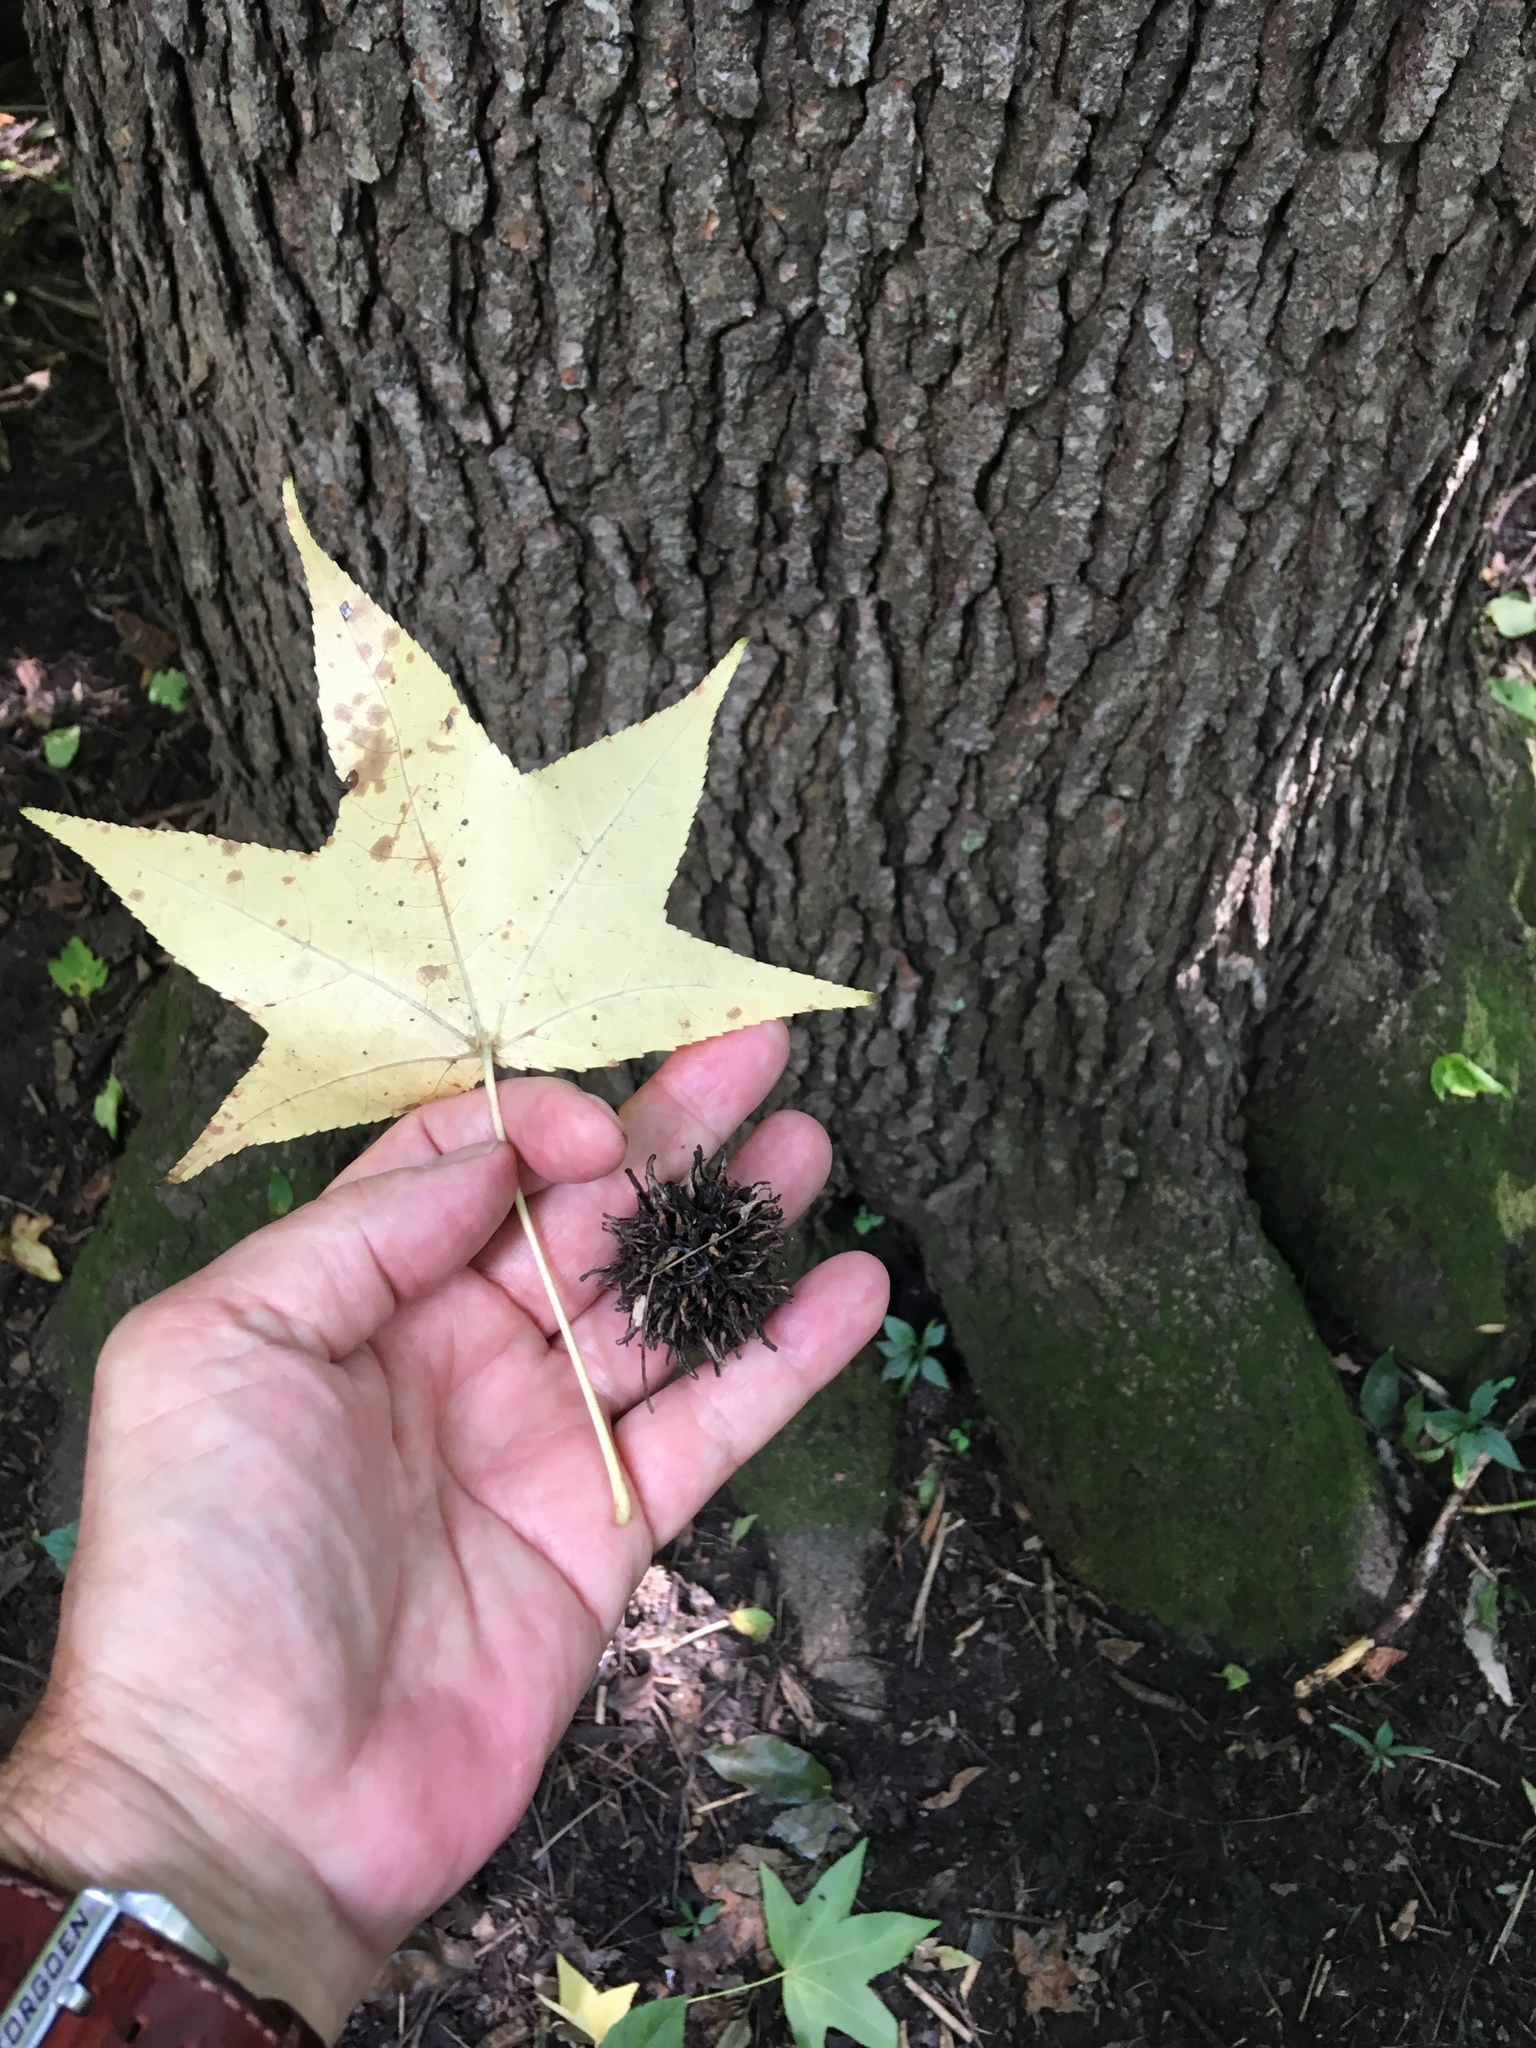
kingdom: Plantae
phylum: Tracheophyta
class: Magnoliopsida
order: Saxifragales
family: Altingiaceae
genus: Liquidambar
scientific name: Liquidambar styraciflua
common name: Sweet gum
